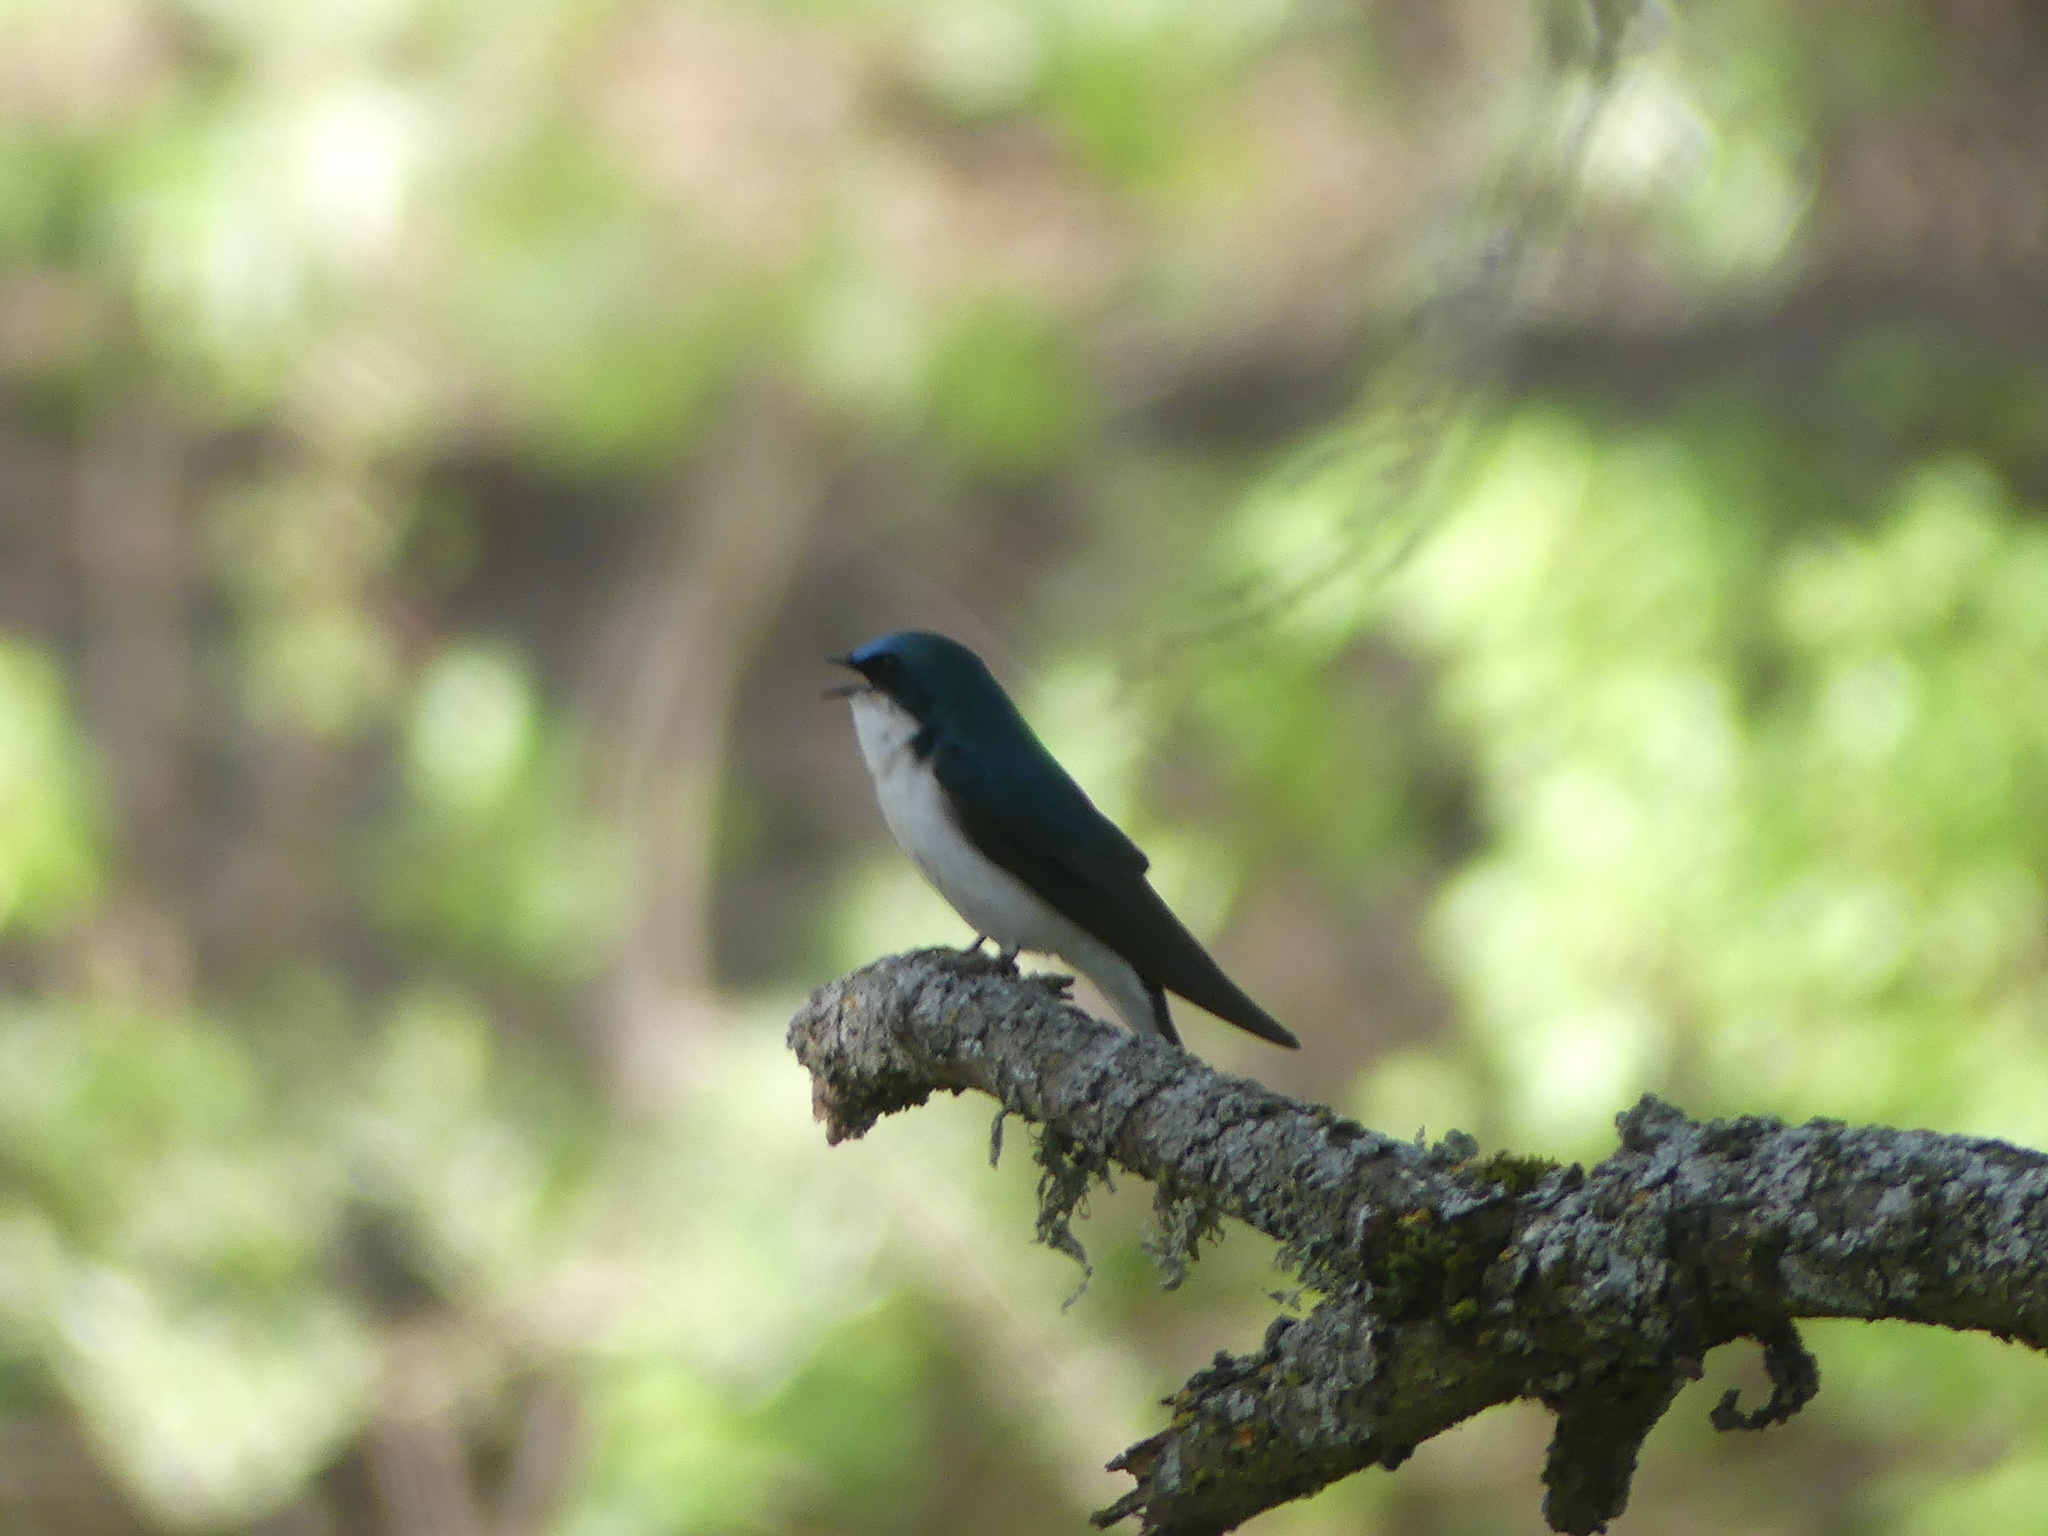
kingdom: Animalia
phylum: Chordata
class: Aves
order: Passeriformes
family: Hirundinidae
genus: Tachycineta
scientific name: Tachycineta bicolor
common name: Tree swallow
